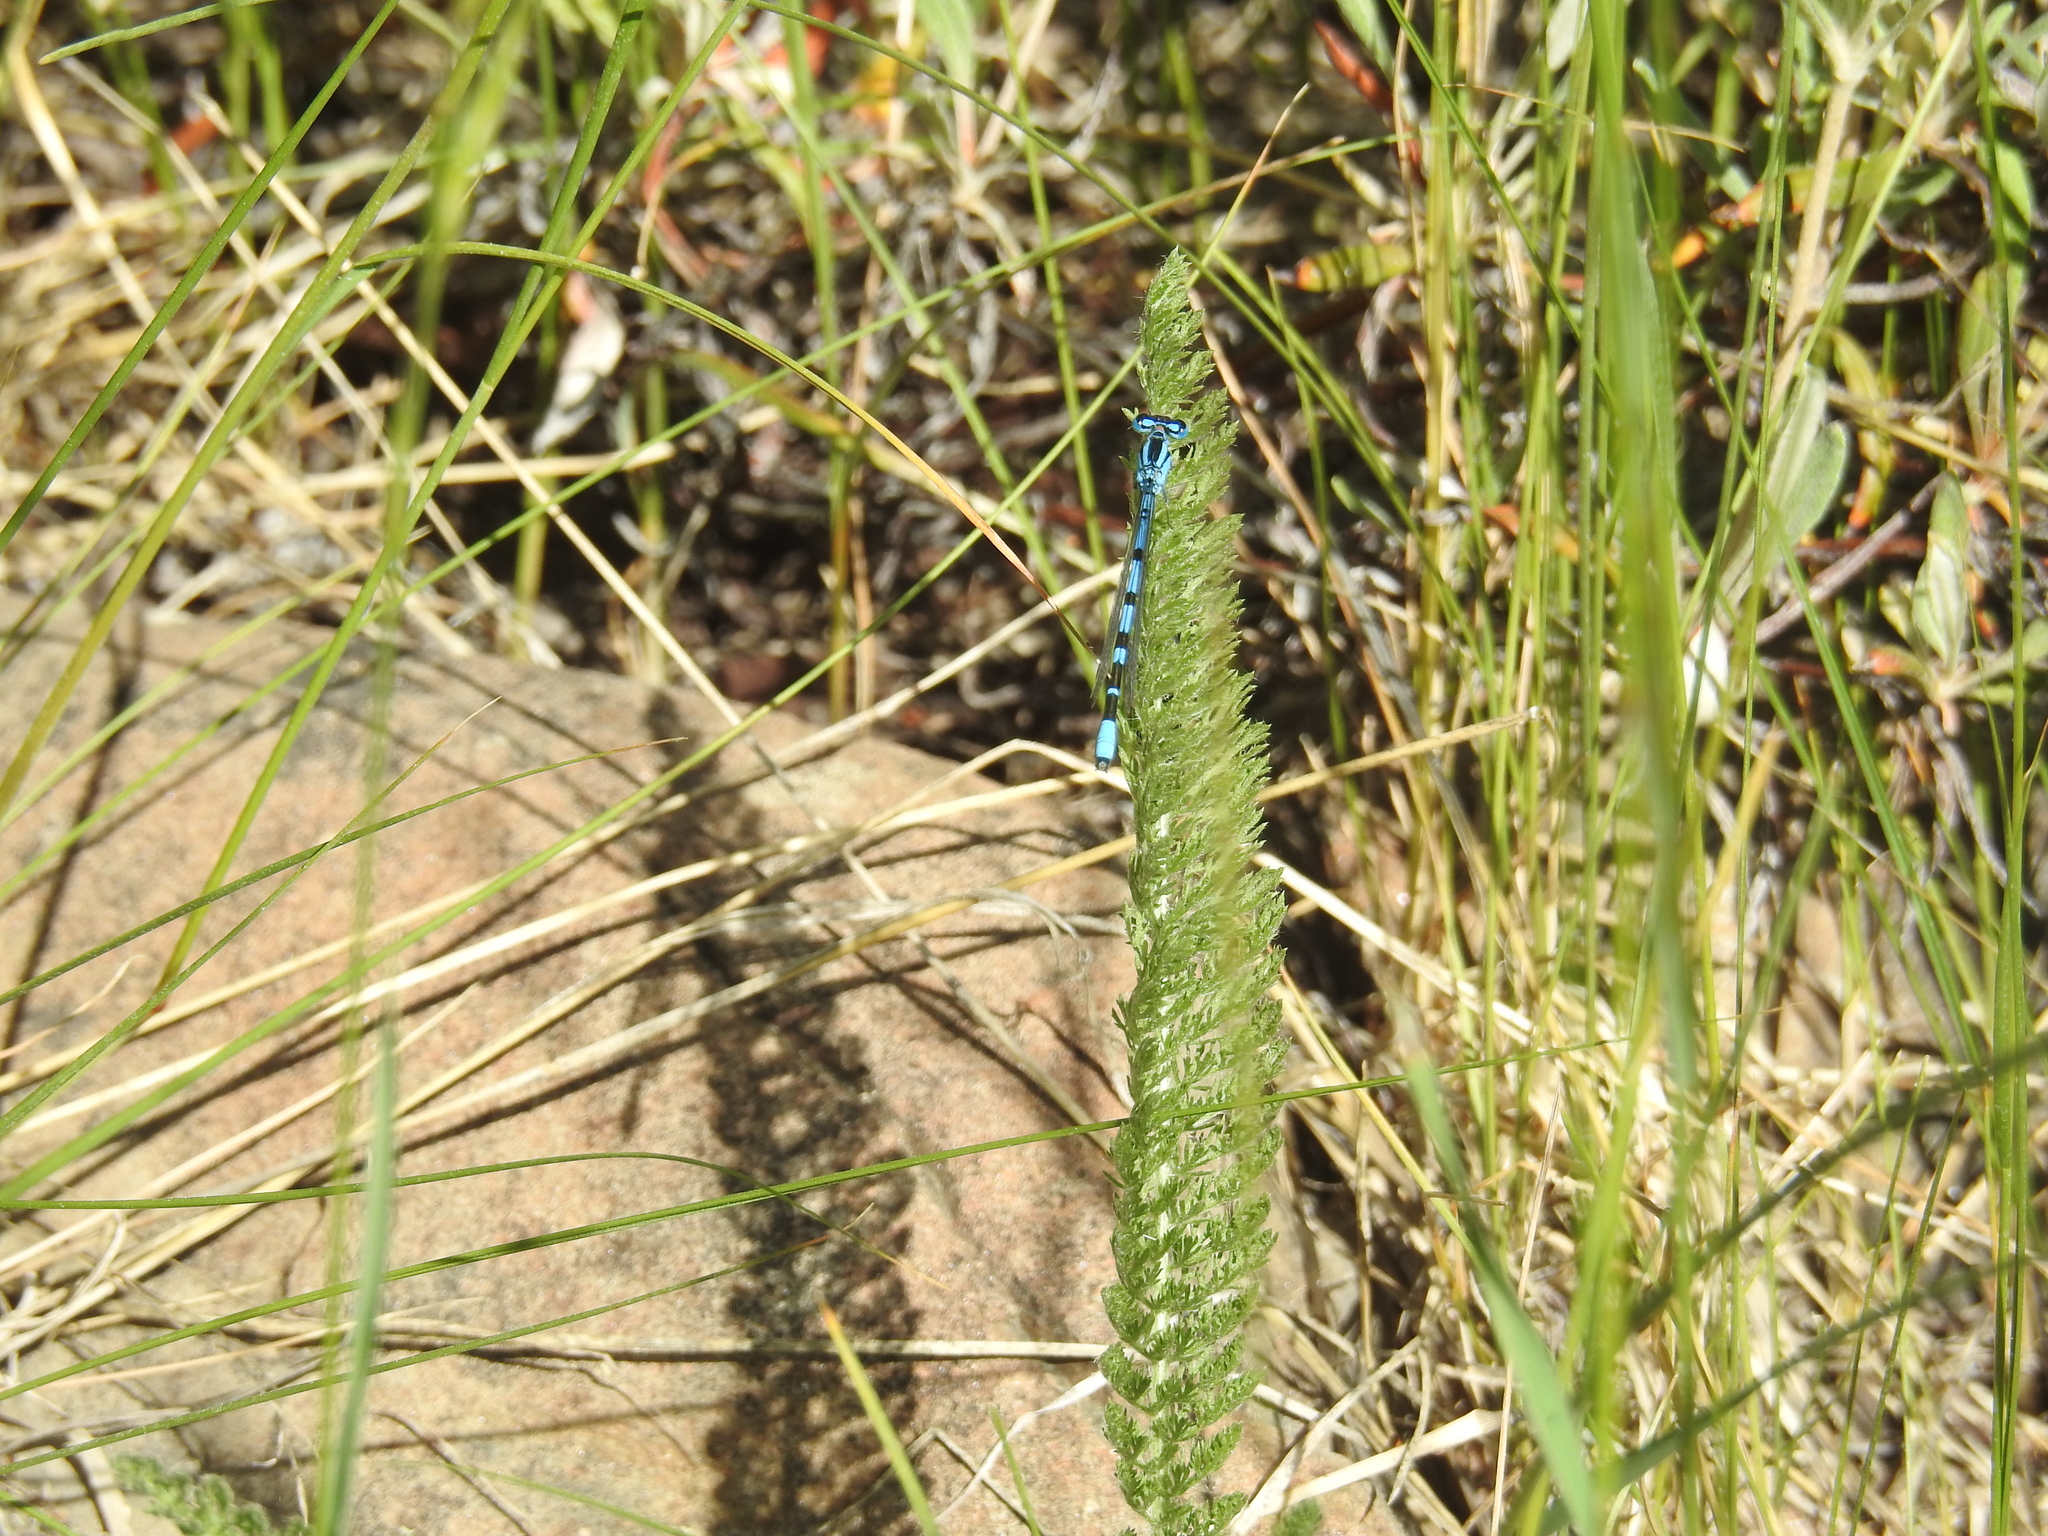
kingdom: Plantae
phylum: Tracheophyta
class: Magnoliopsida
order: Asterales
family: Asteraceae
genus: Achillea
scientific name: Achillea millefolium
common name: Yarrow
